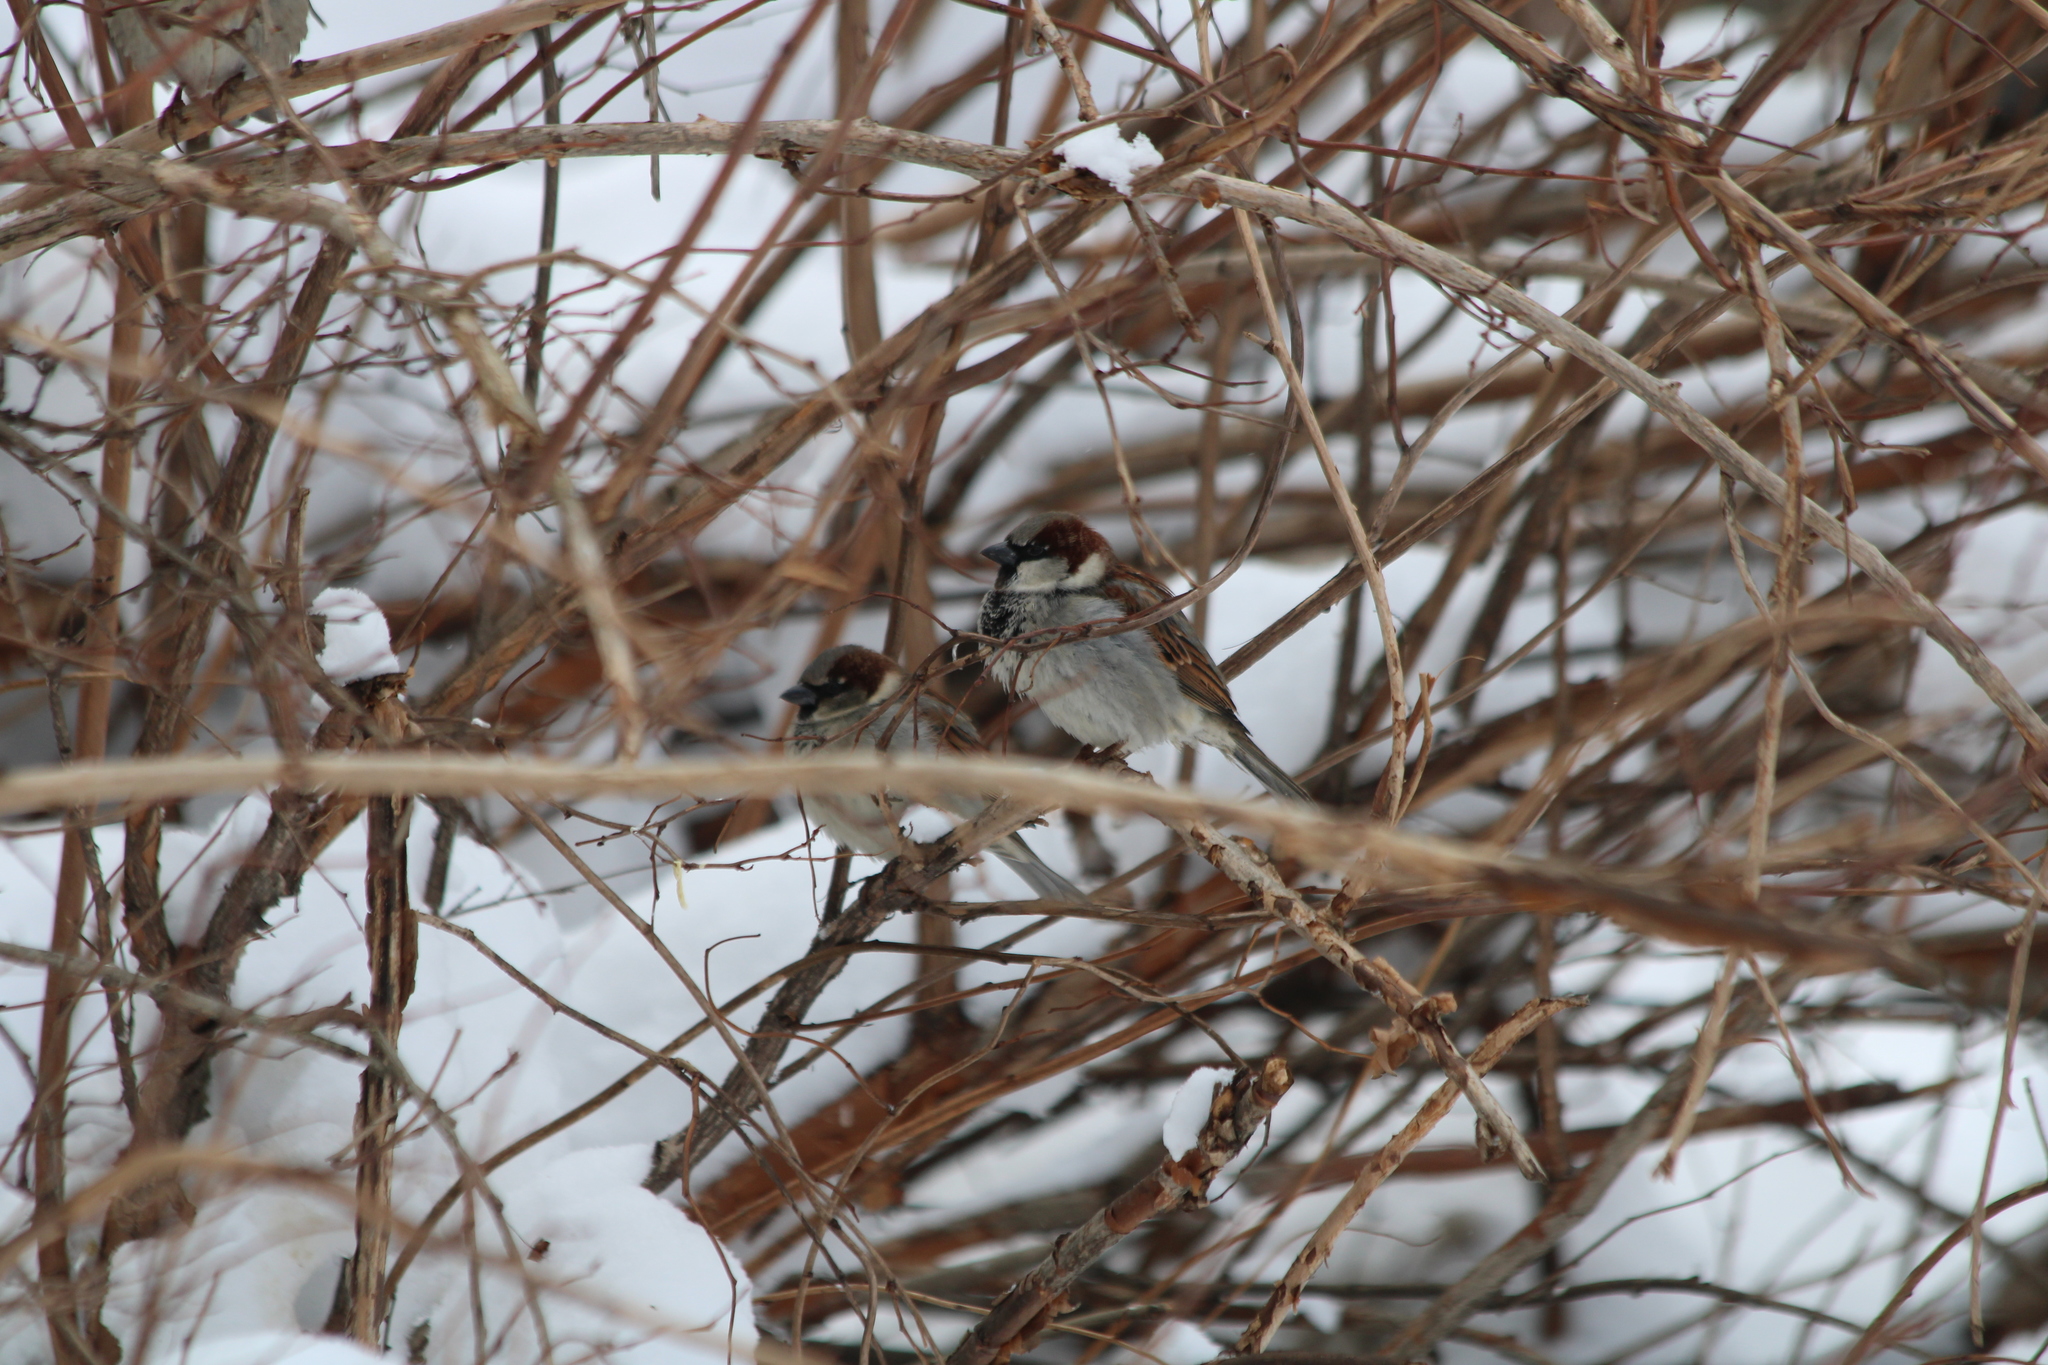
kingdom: Animalia
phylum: Chordata
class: Aves
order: Passeriformes
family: Passeridae
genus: Passer
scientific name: Passer domesticus
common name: House sparrow
